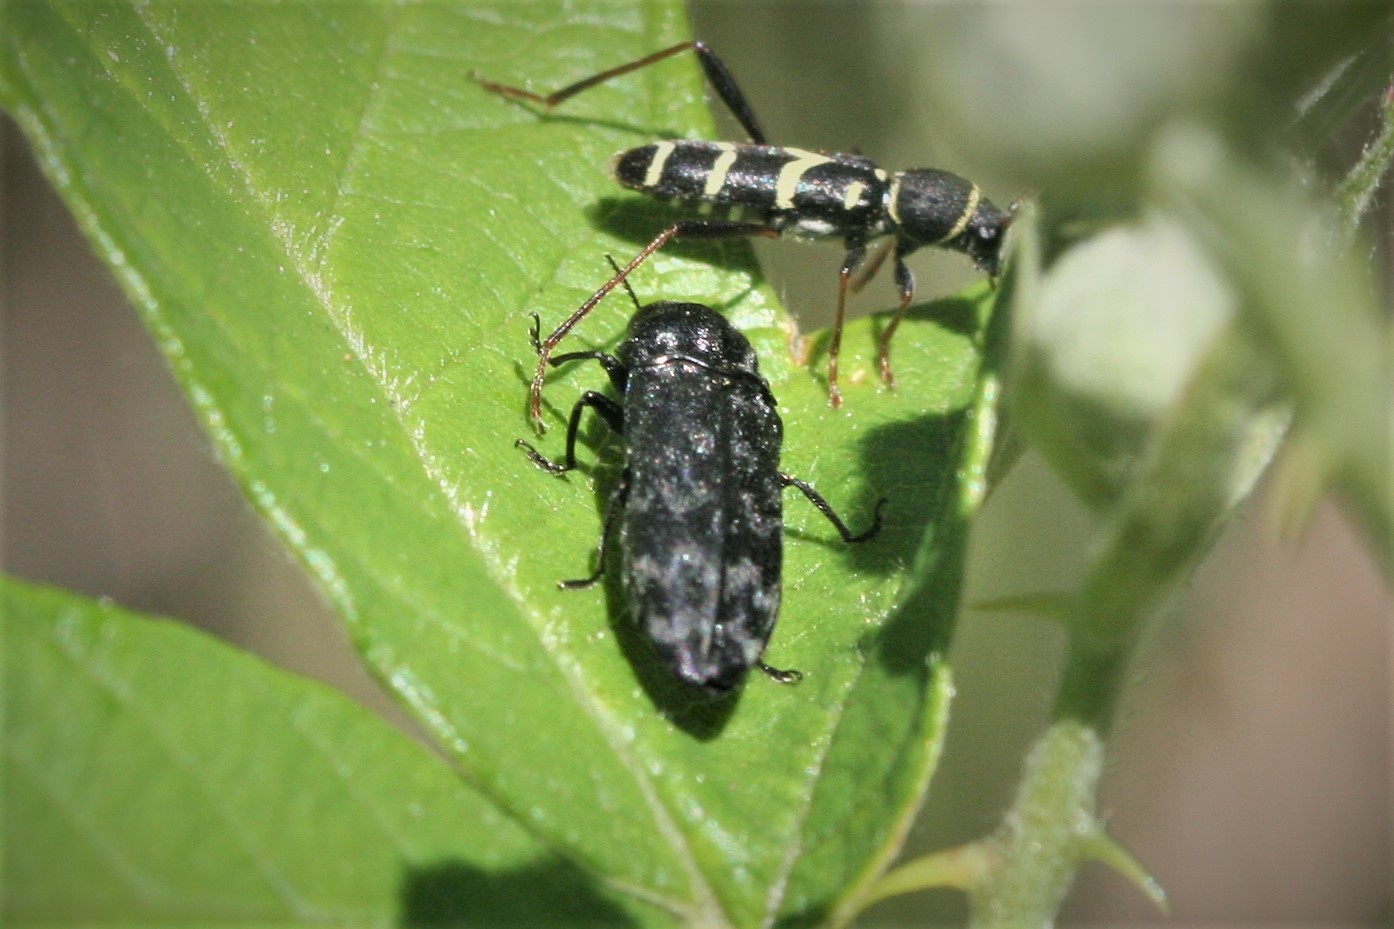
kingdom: Animalia
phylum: Arthropoda
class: Insecta
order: Coleoptera
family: Buprestidae
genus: Coraebus
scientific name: Coraebus rubi
